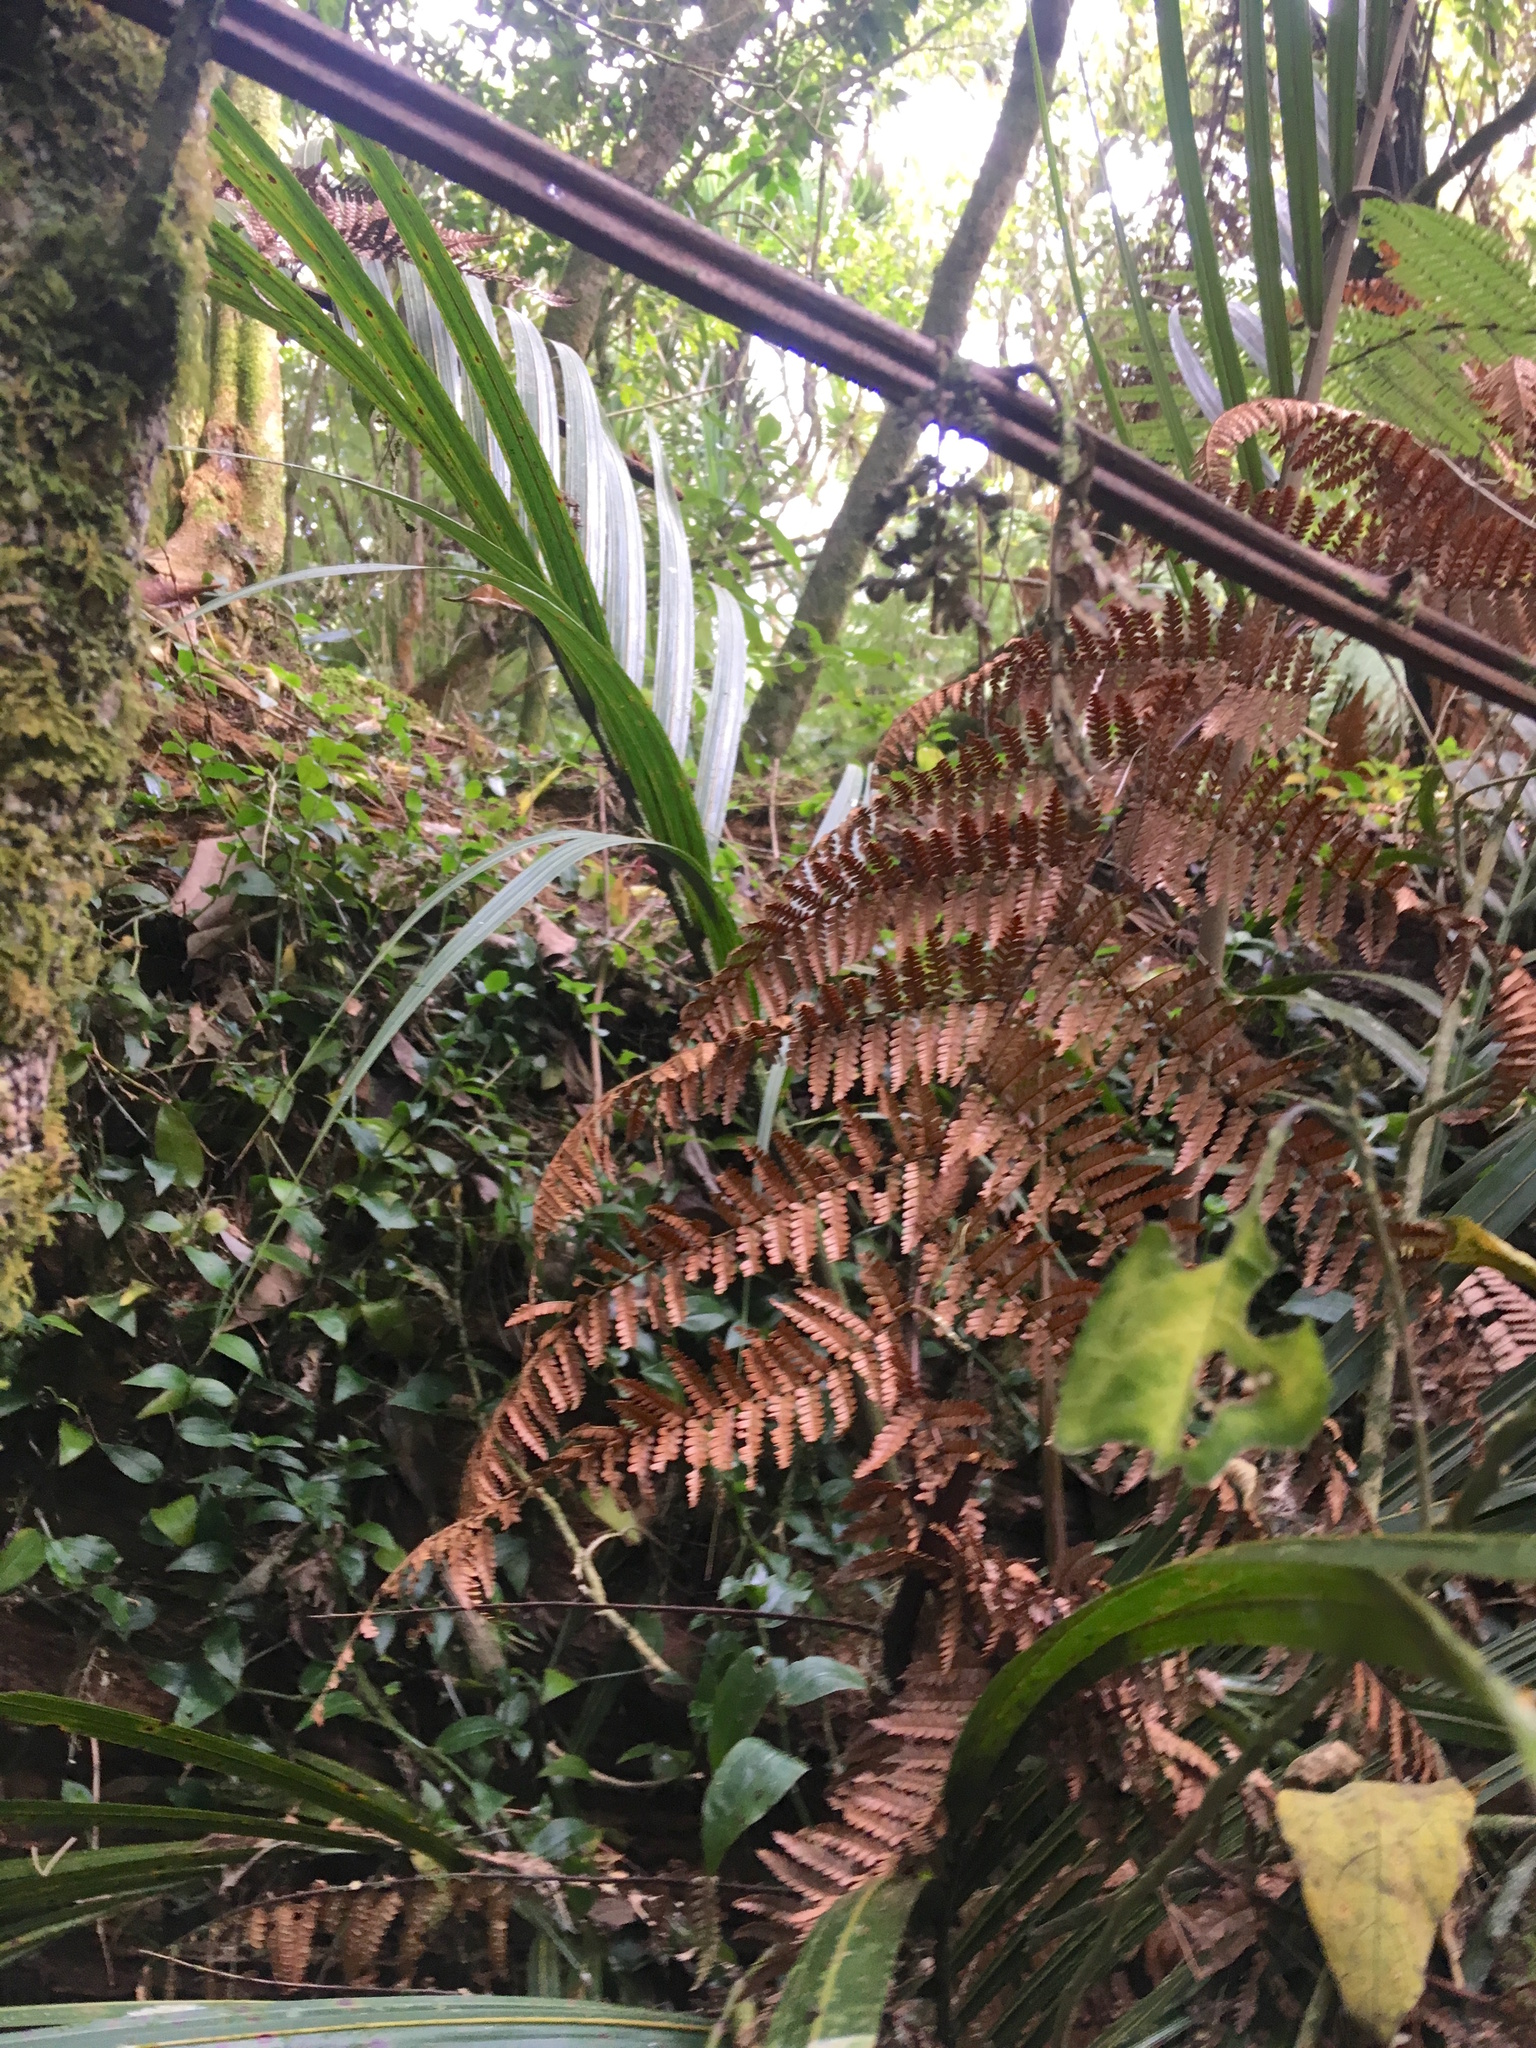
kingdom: Plantae
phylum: Tracheophyta
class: Liliopsida
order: Commelinales
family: Commelinaceae
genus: Tradescantia
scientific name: Tradescantia fluminensis
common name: Wandering-jew
